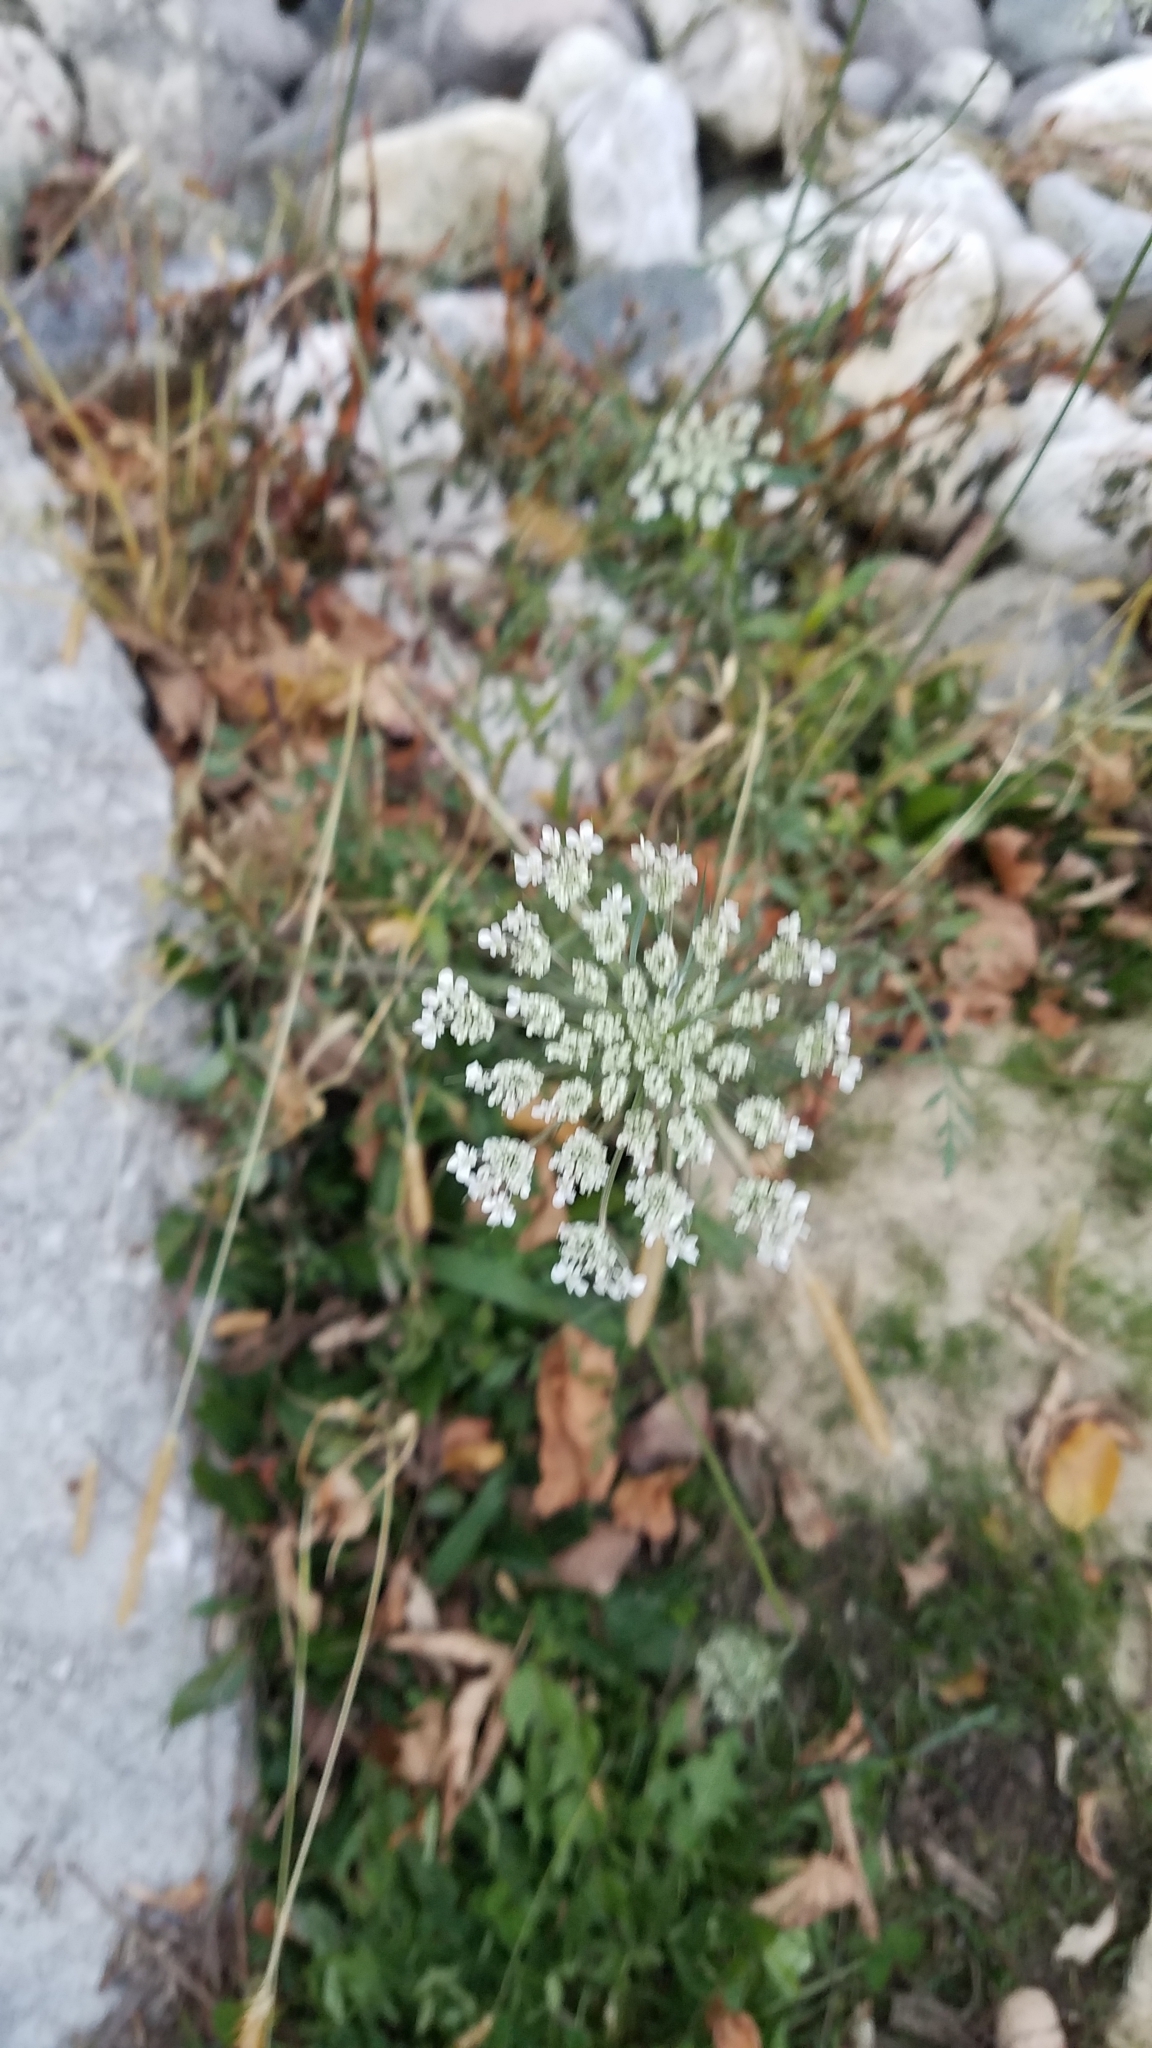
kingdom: Plantae
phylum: Tracheophyta
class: Magnoliopsida
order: Apiales
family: Apiaceae
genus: Daucus
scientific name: Daucus carota
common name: Wild carrot
